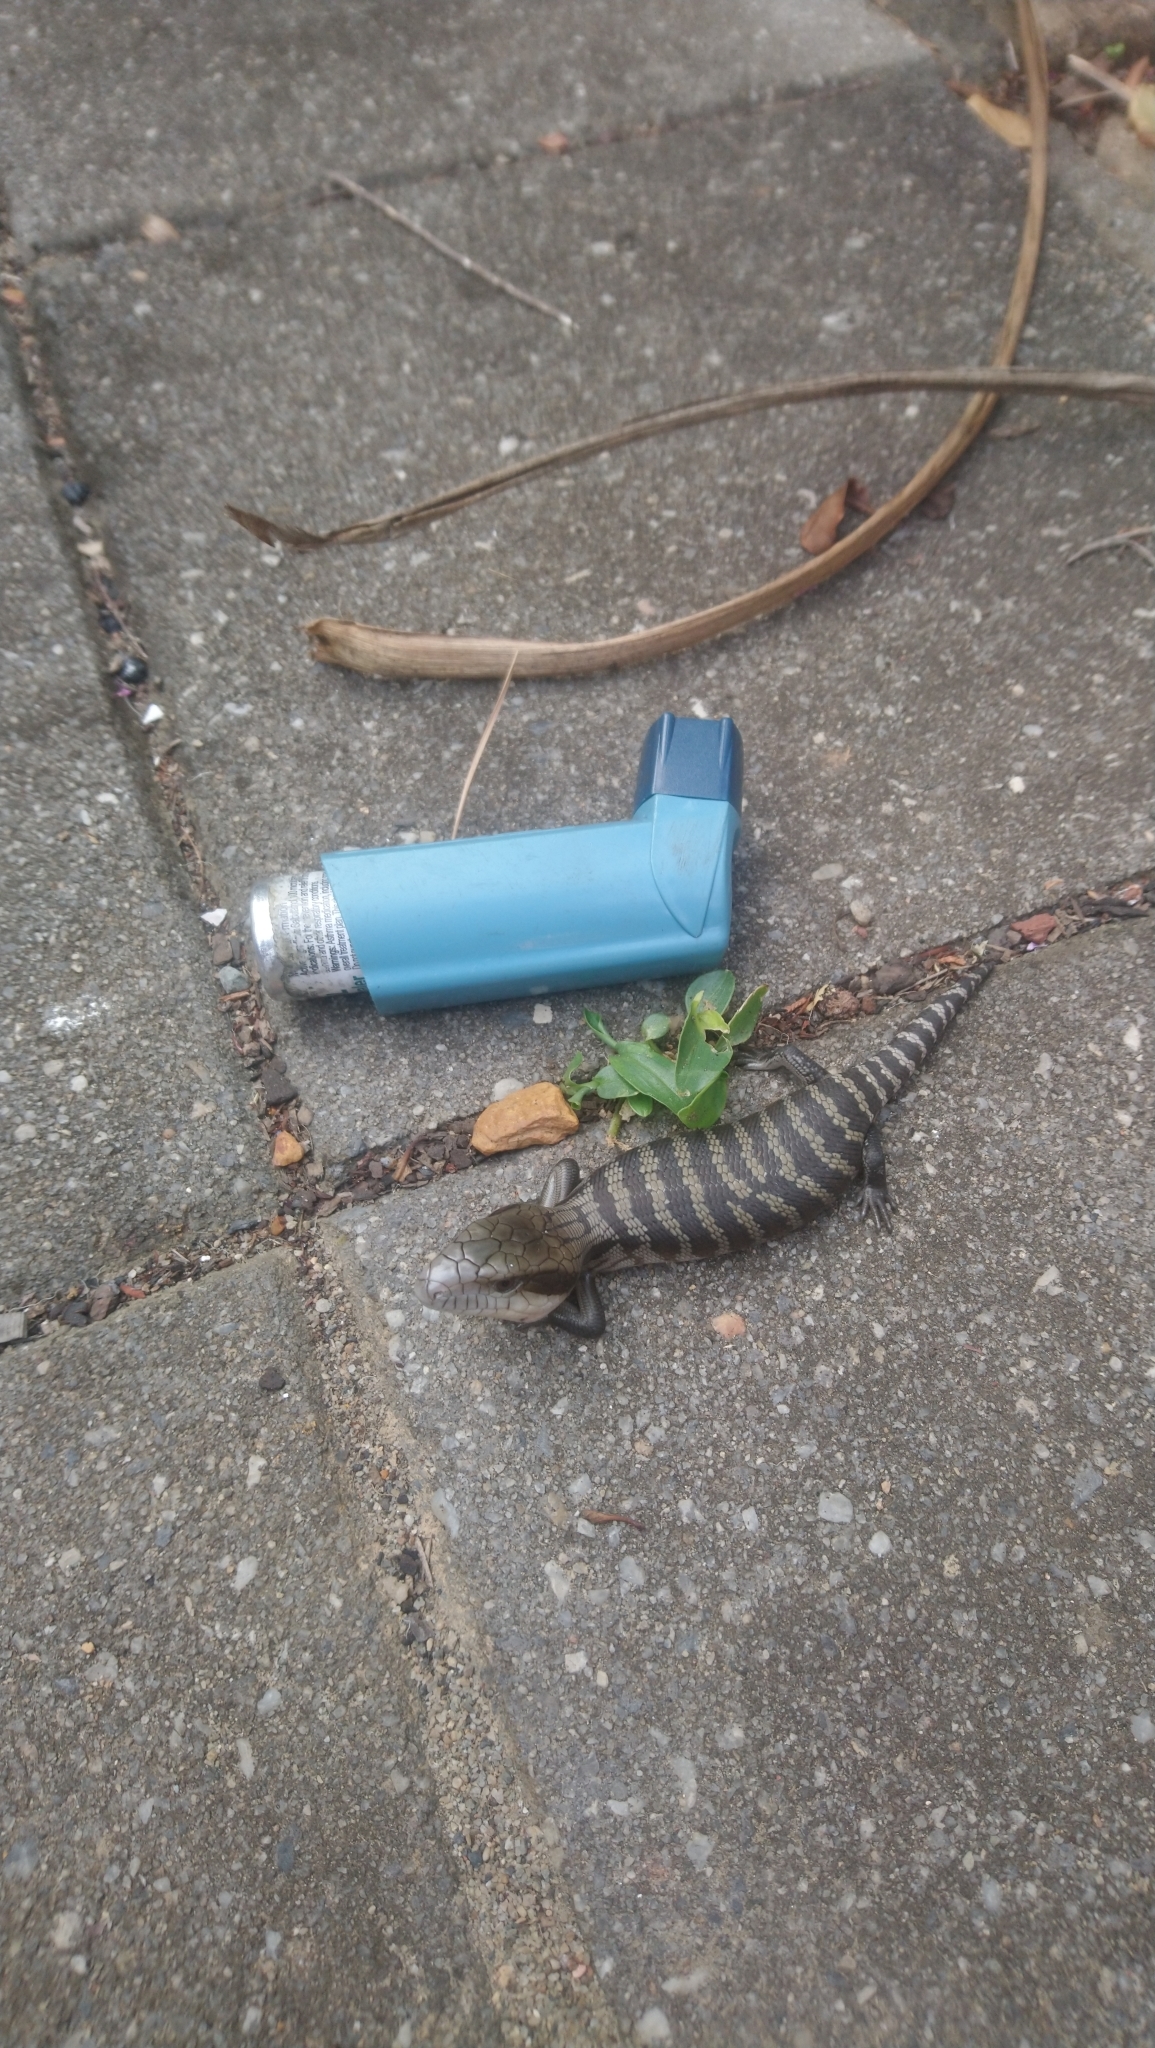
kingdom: Animalia
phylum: Chordata
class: Squamata
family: Scincidae
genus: Tiliqua
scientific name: Tiliqua scincoides
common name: Common bluetongue
